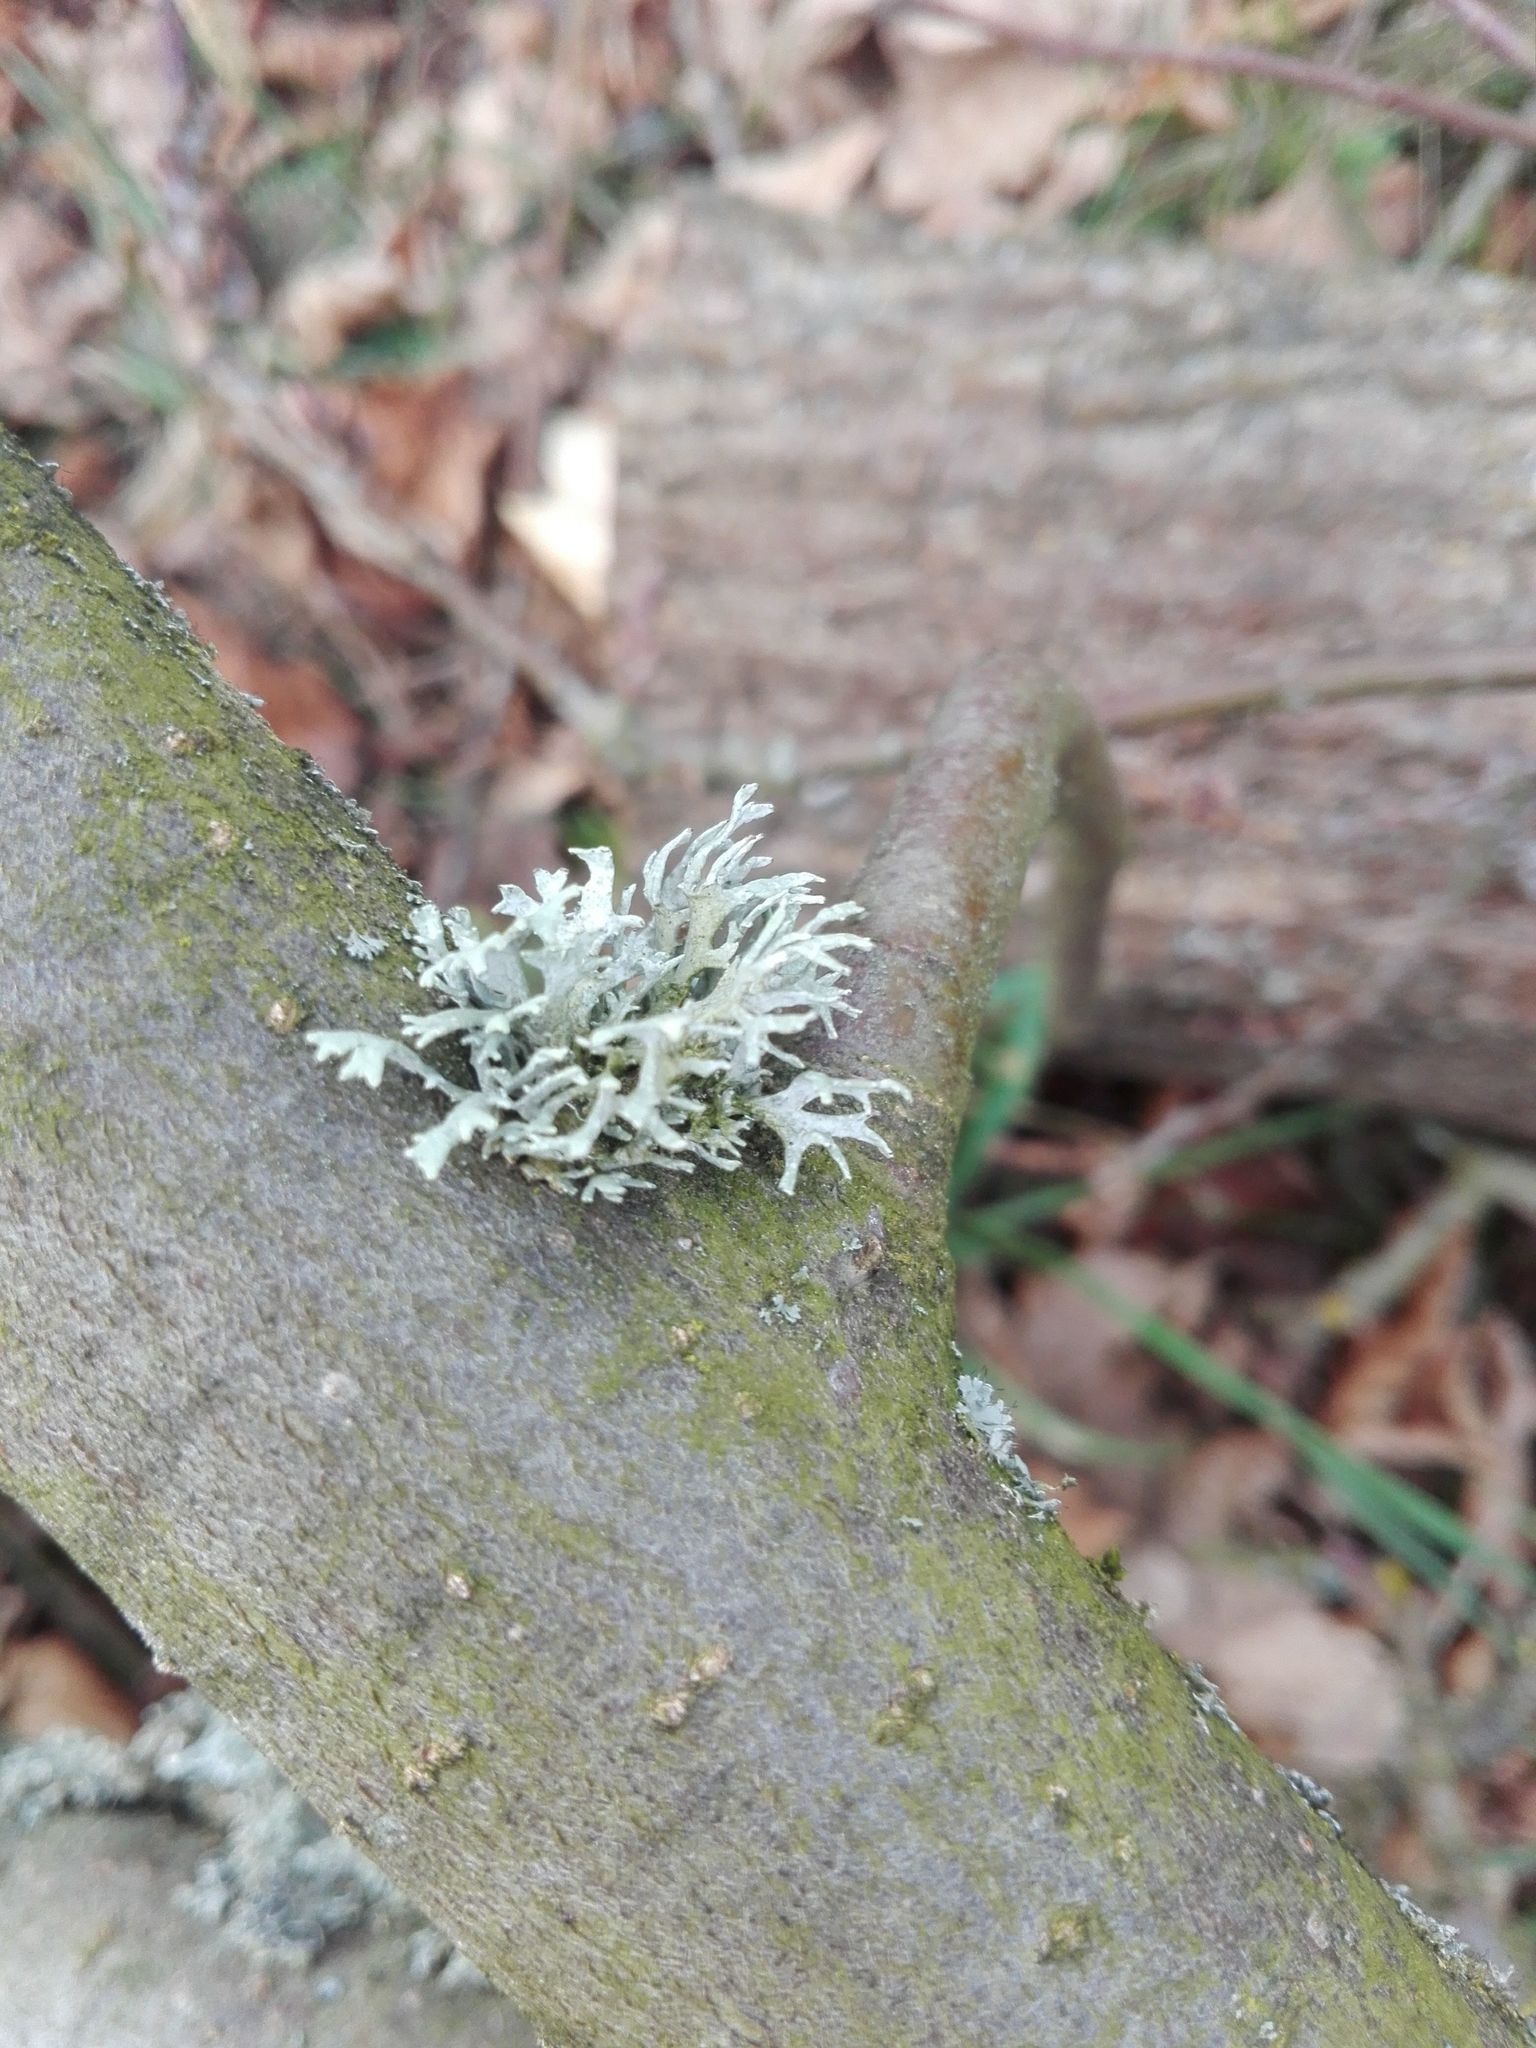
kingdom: Fungi
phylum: Ascomycota
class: Lecanoromycetes
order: Lecanorales
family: Parmeliaceae
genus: Evernia
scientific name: Evernia prunastri
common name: Oak moss
